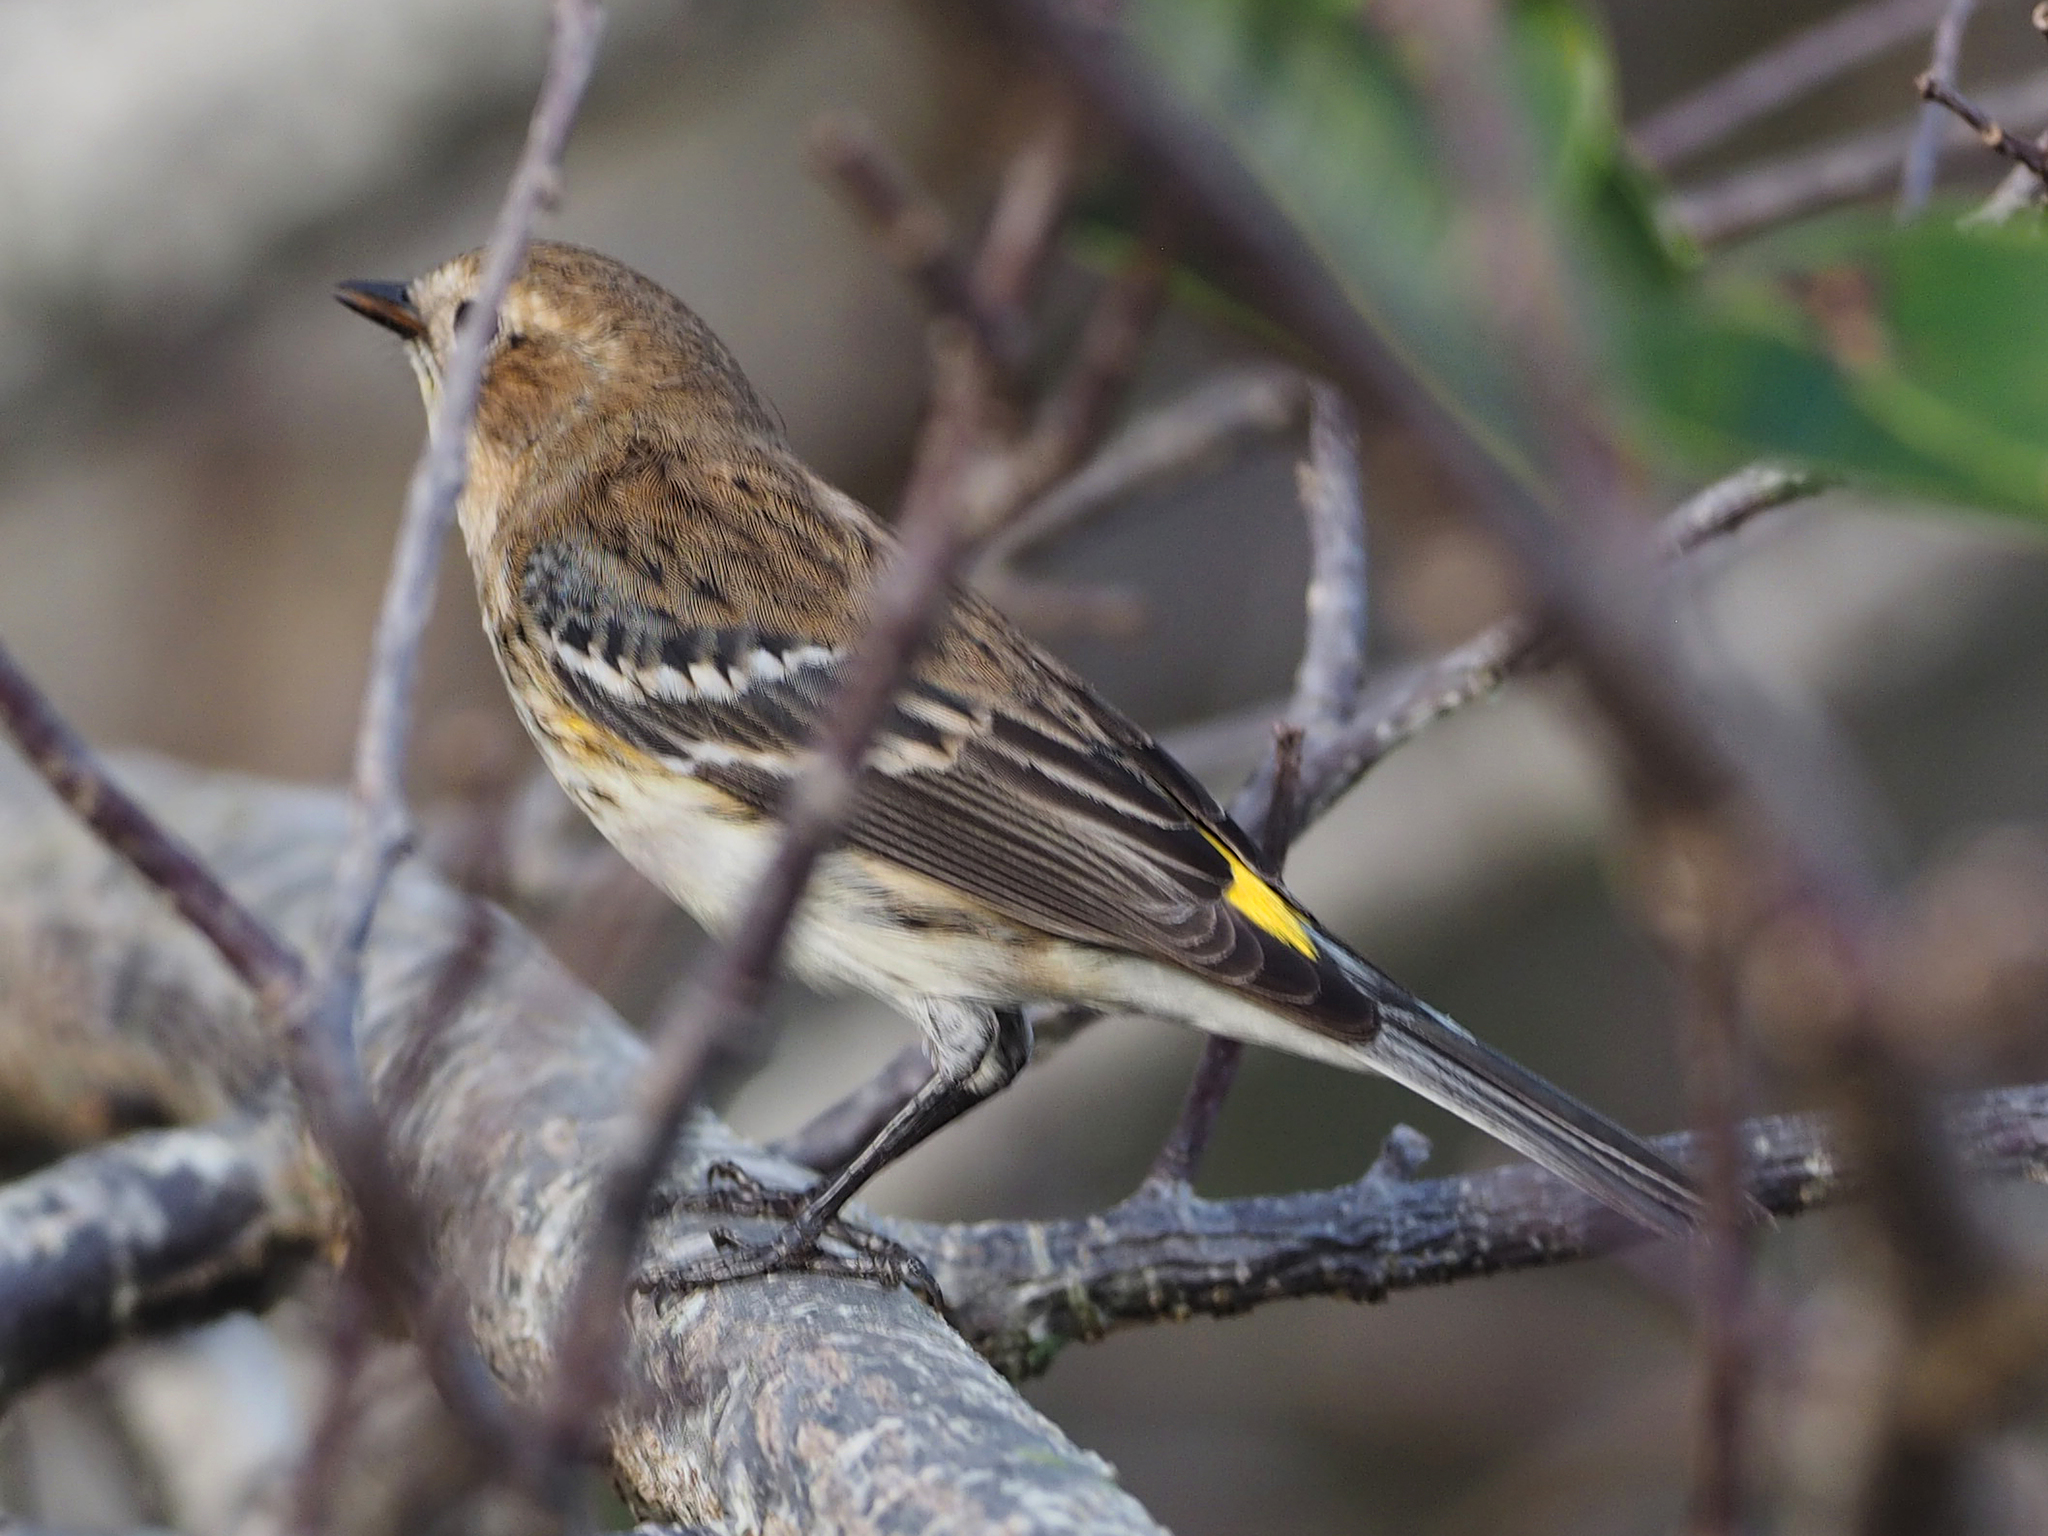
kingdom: Animalia
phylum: Chordata
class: Aves
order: Passeriformes
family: Parulidae
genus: Setophaga
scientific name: Setophaga coronata
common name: Myrtle warbler
